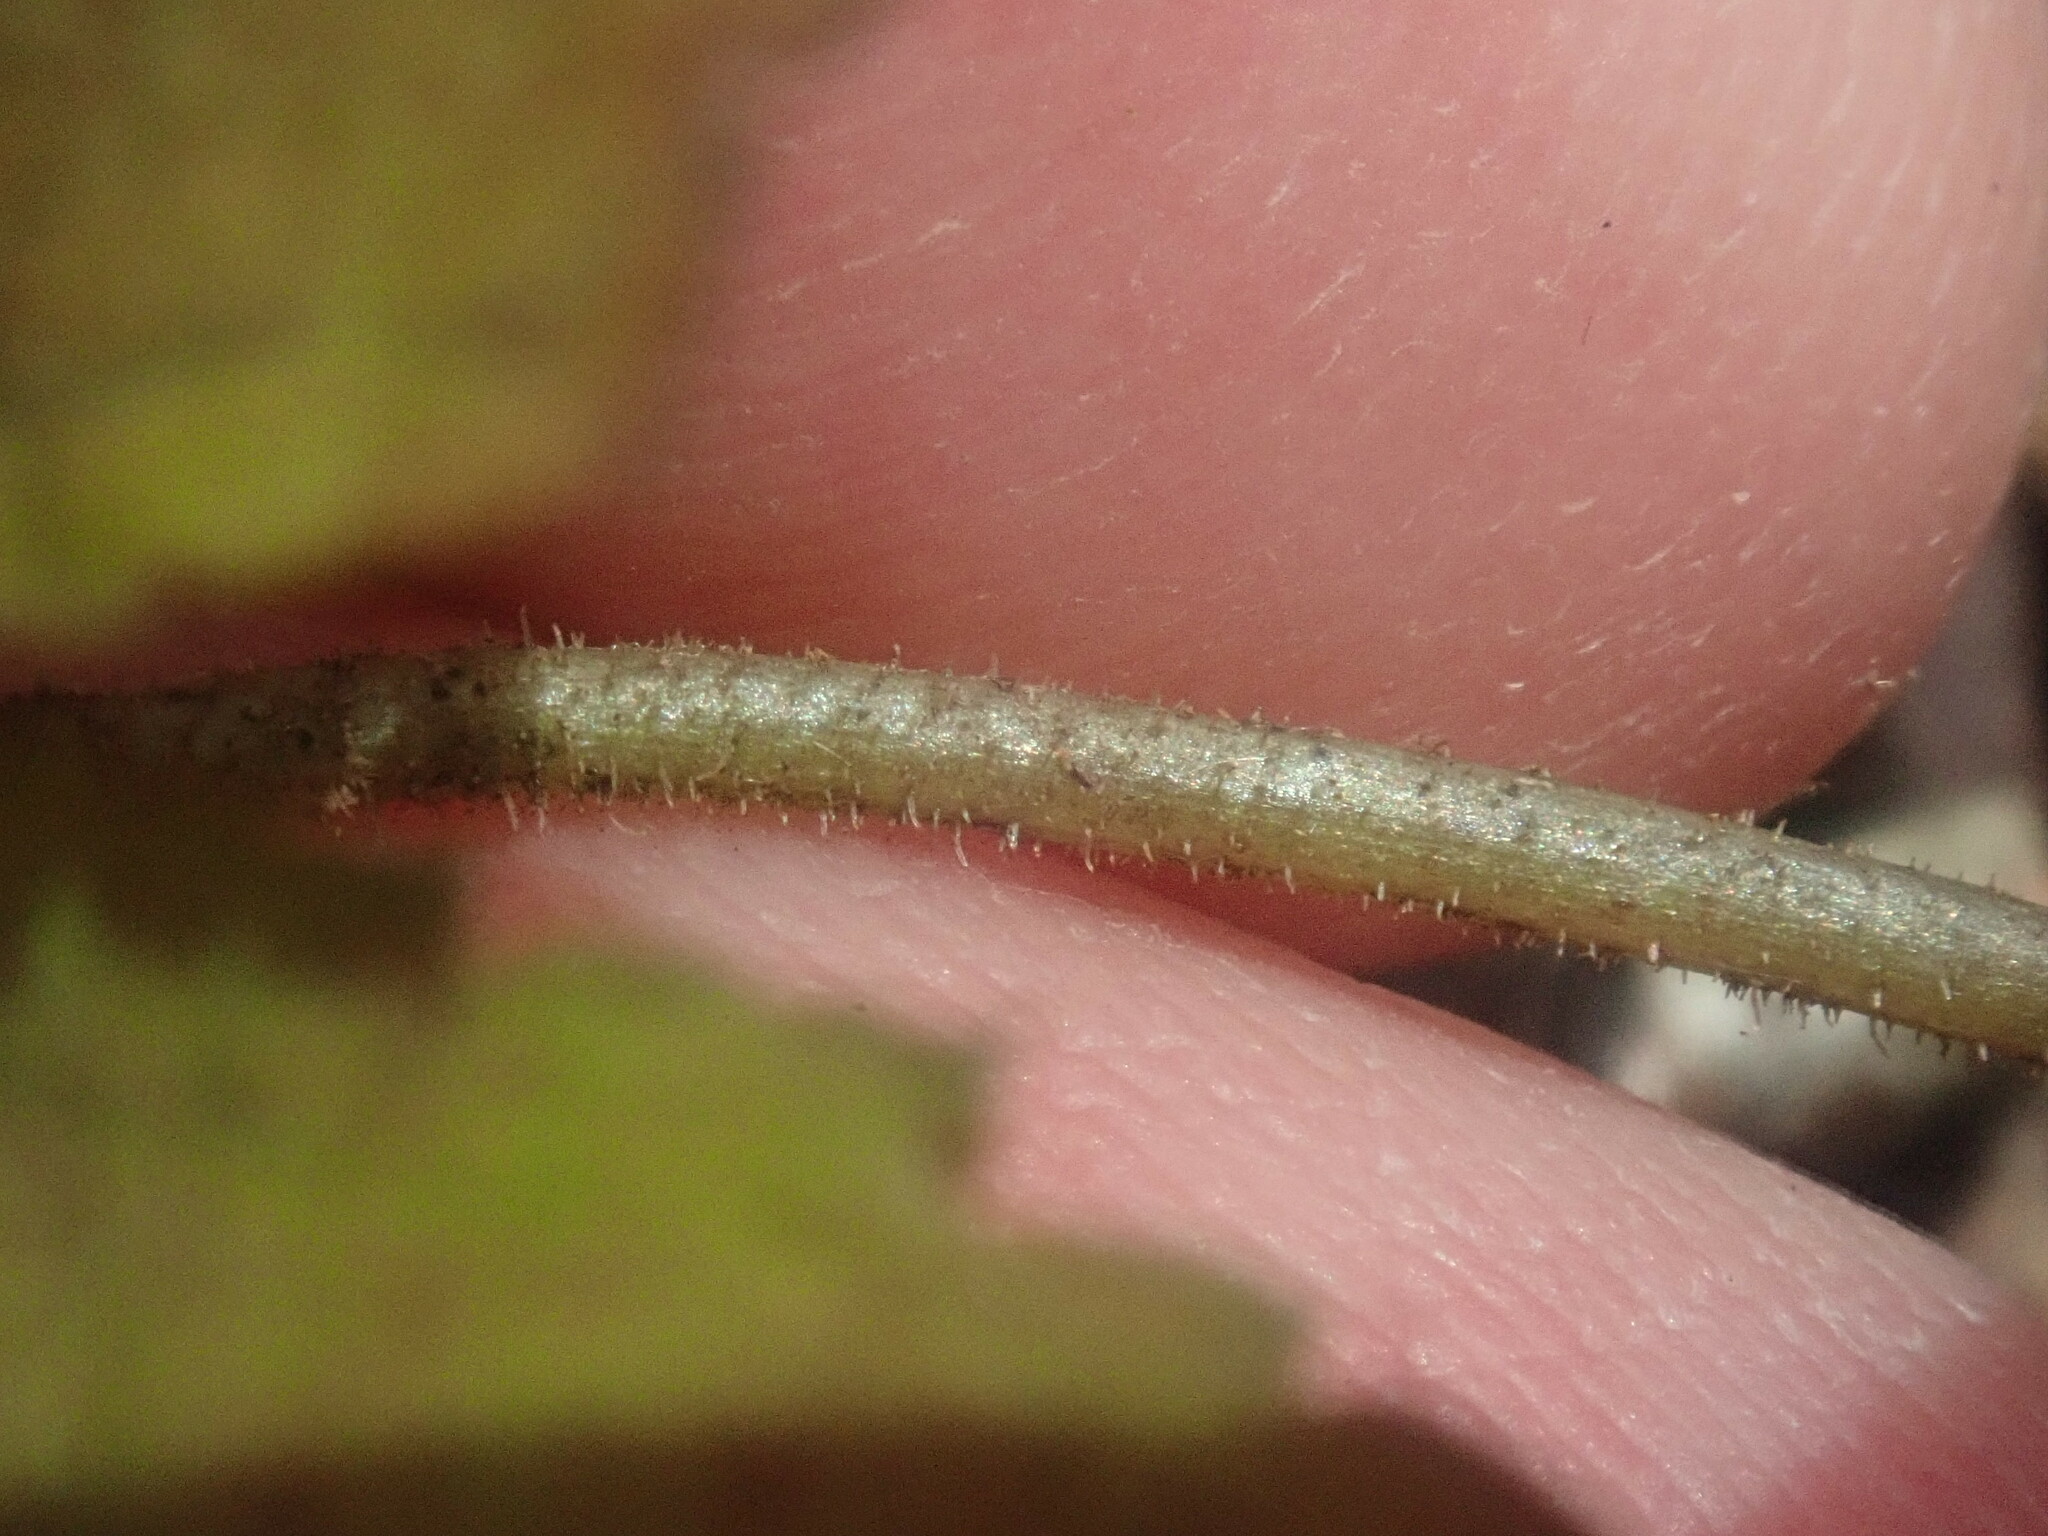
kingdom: Plantae
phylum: Tracheophyta
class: Magnoliopsida
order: Saxifragales
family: Saxifragaceae
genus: Tiarella
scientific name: Tiarella stolonifera
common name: Stoloniferous foamflower
